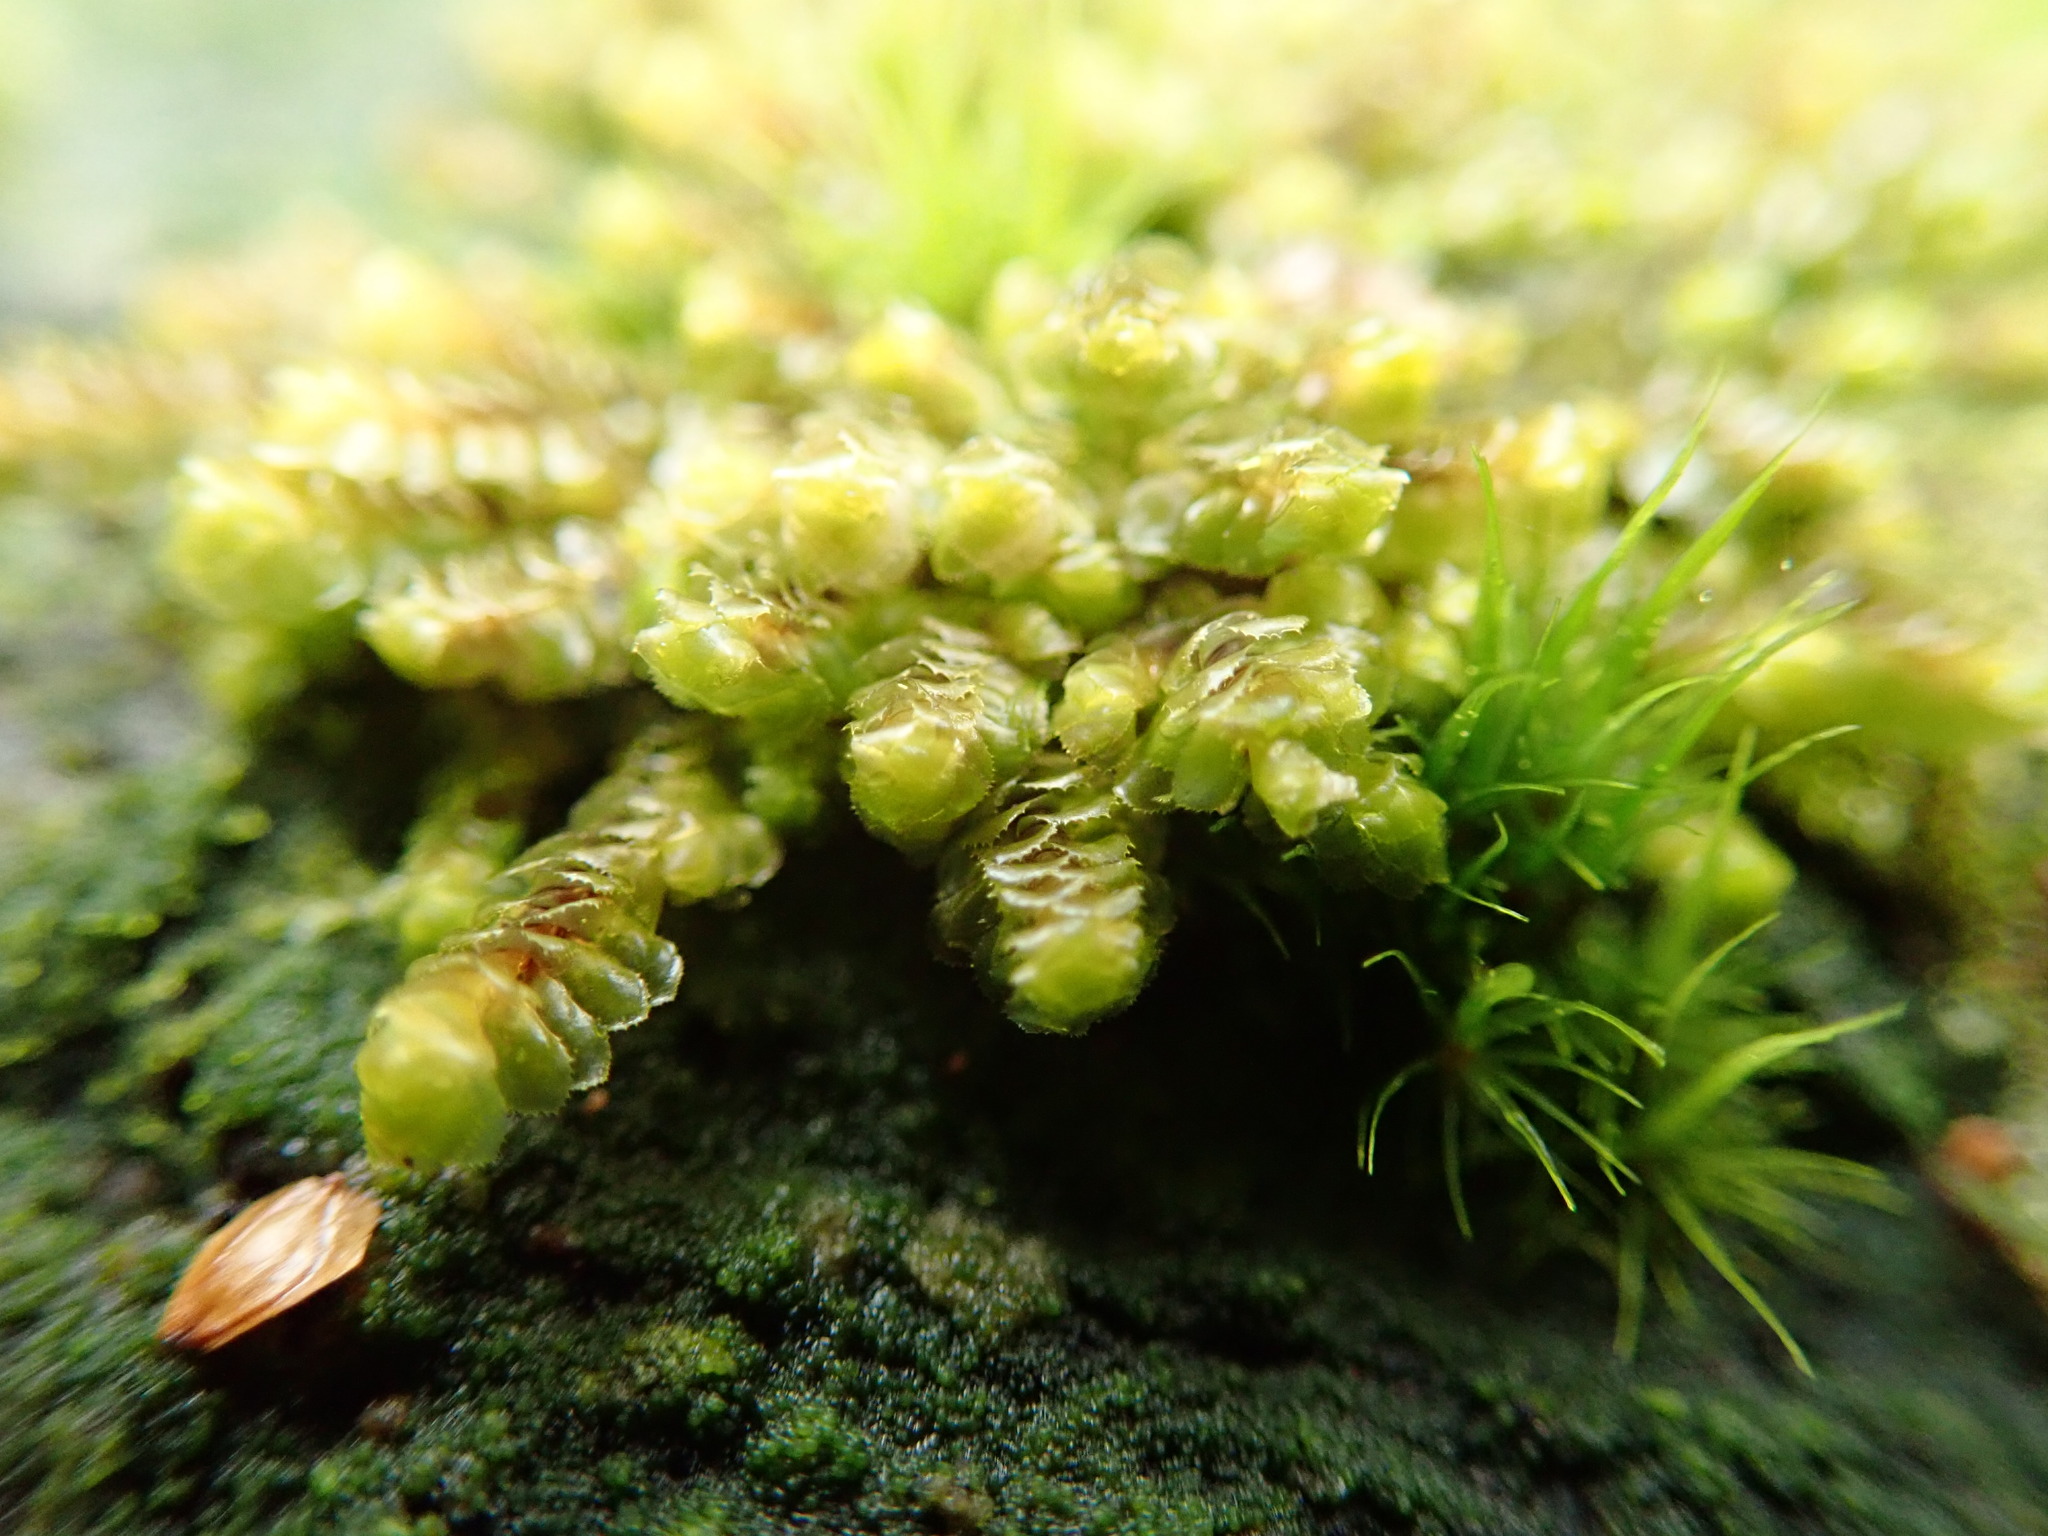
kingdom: Plantae
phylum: Marchantiophyta
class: Jungermanniopsida
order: Jungermanniales
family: Scapaniaceae
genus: Scapania
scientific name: Scapania bolanderi
